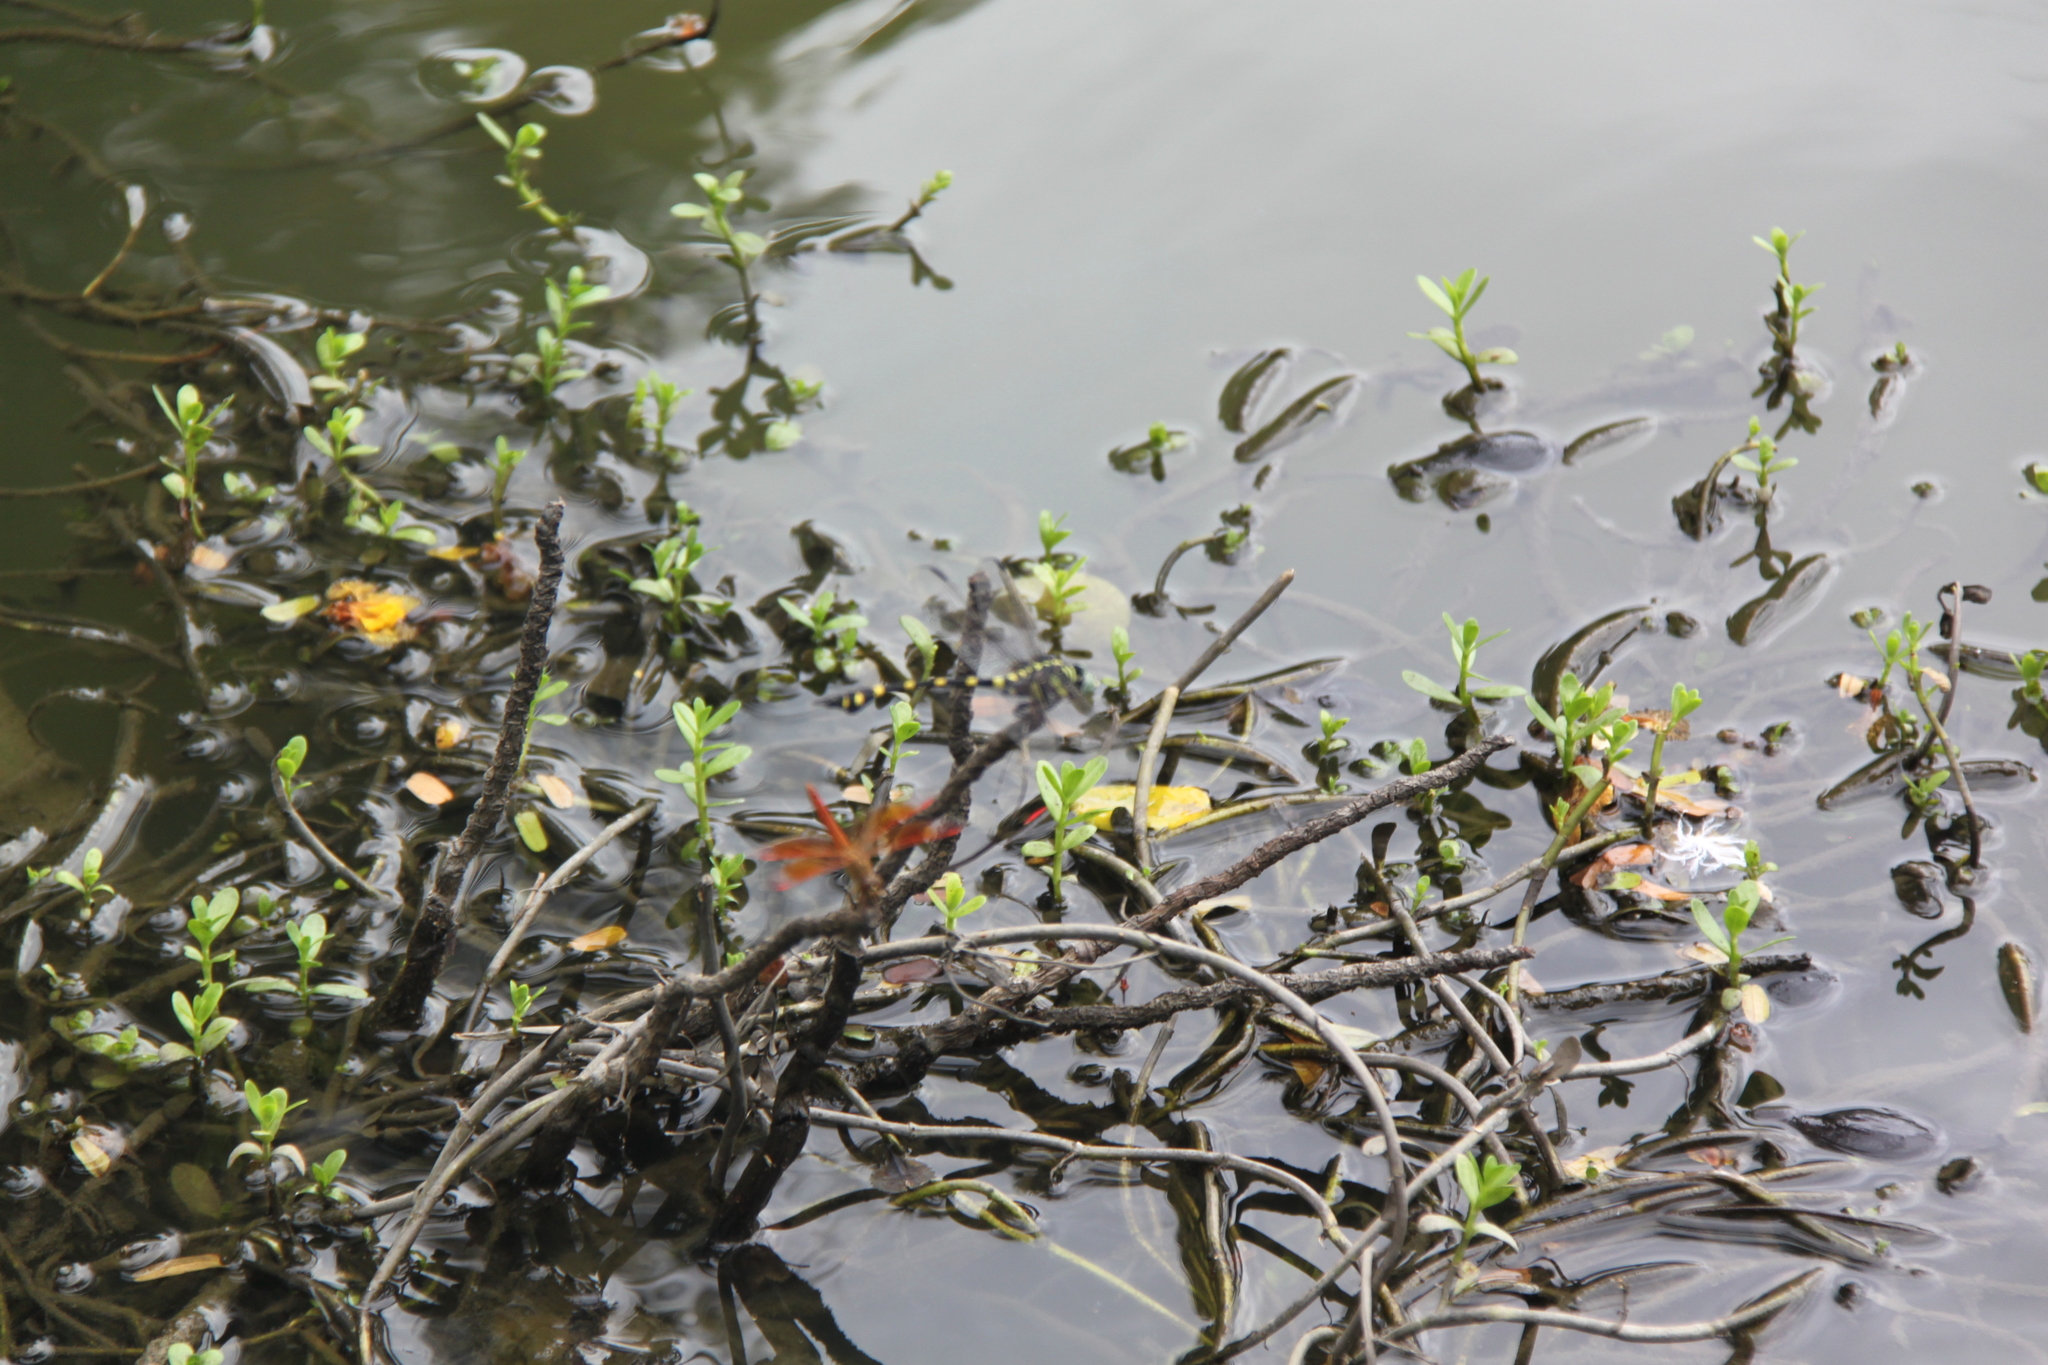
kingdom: Animalia
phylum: Arthropoda
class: Insecta
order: Odonata
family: Libellulidae
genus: Brachythemis
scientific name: Brachythemis contaminata
